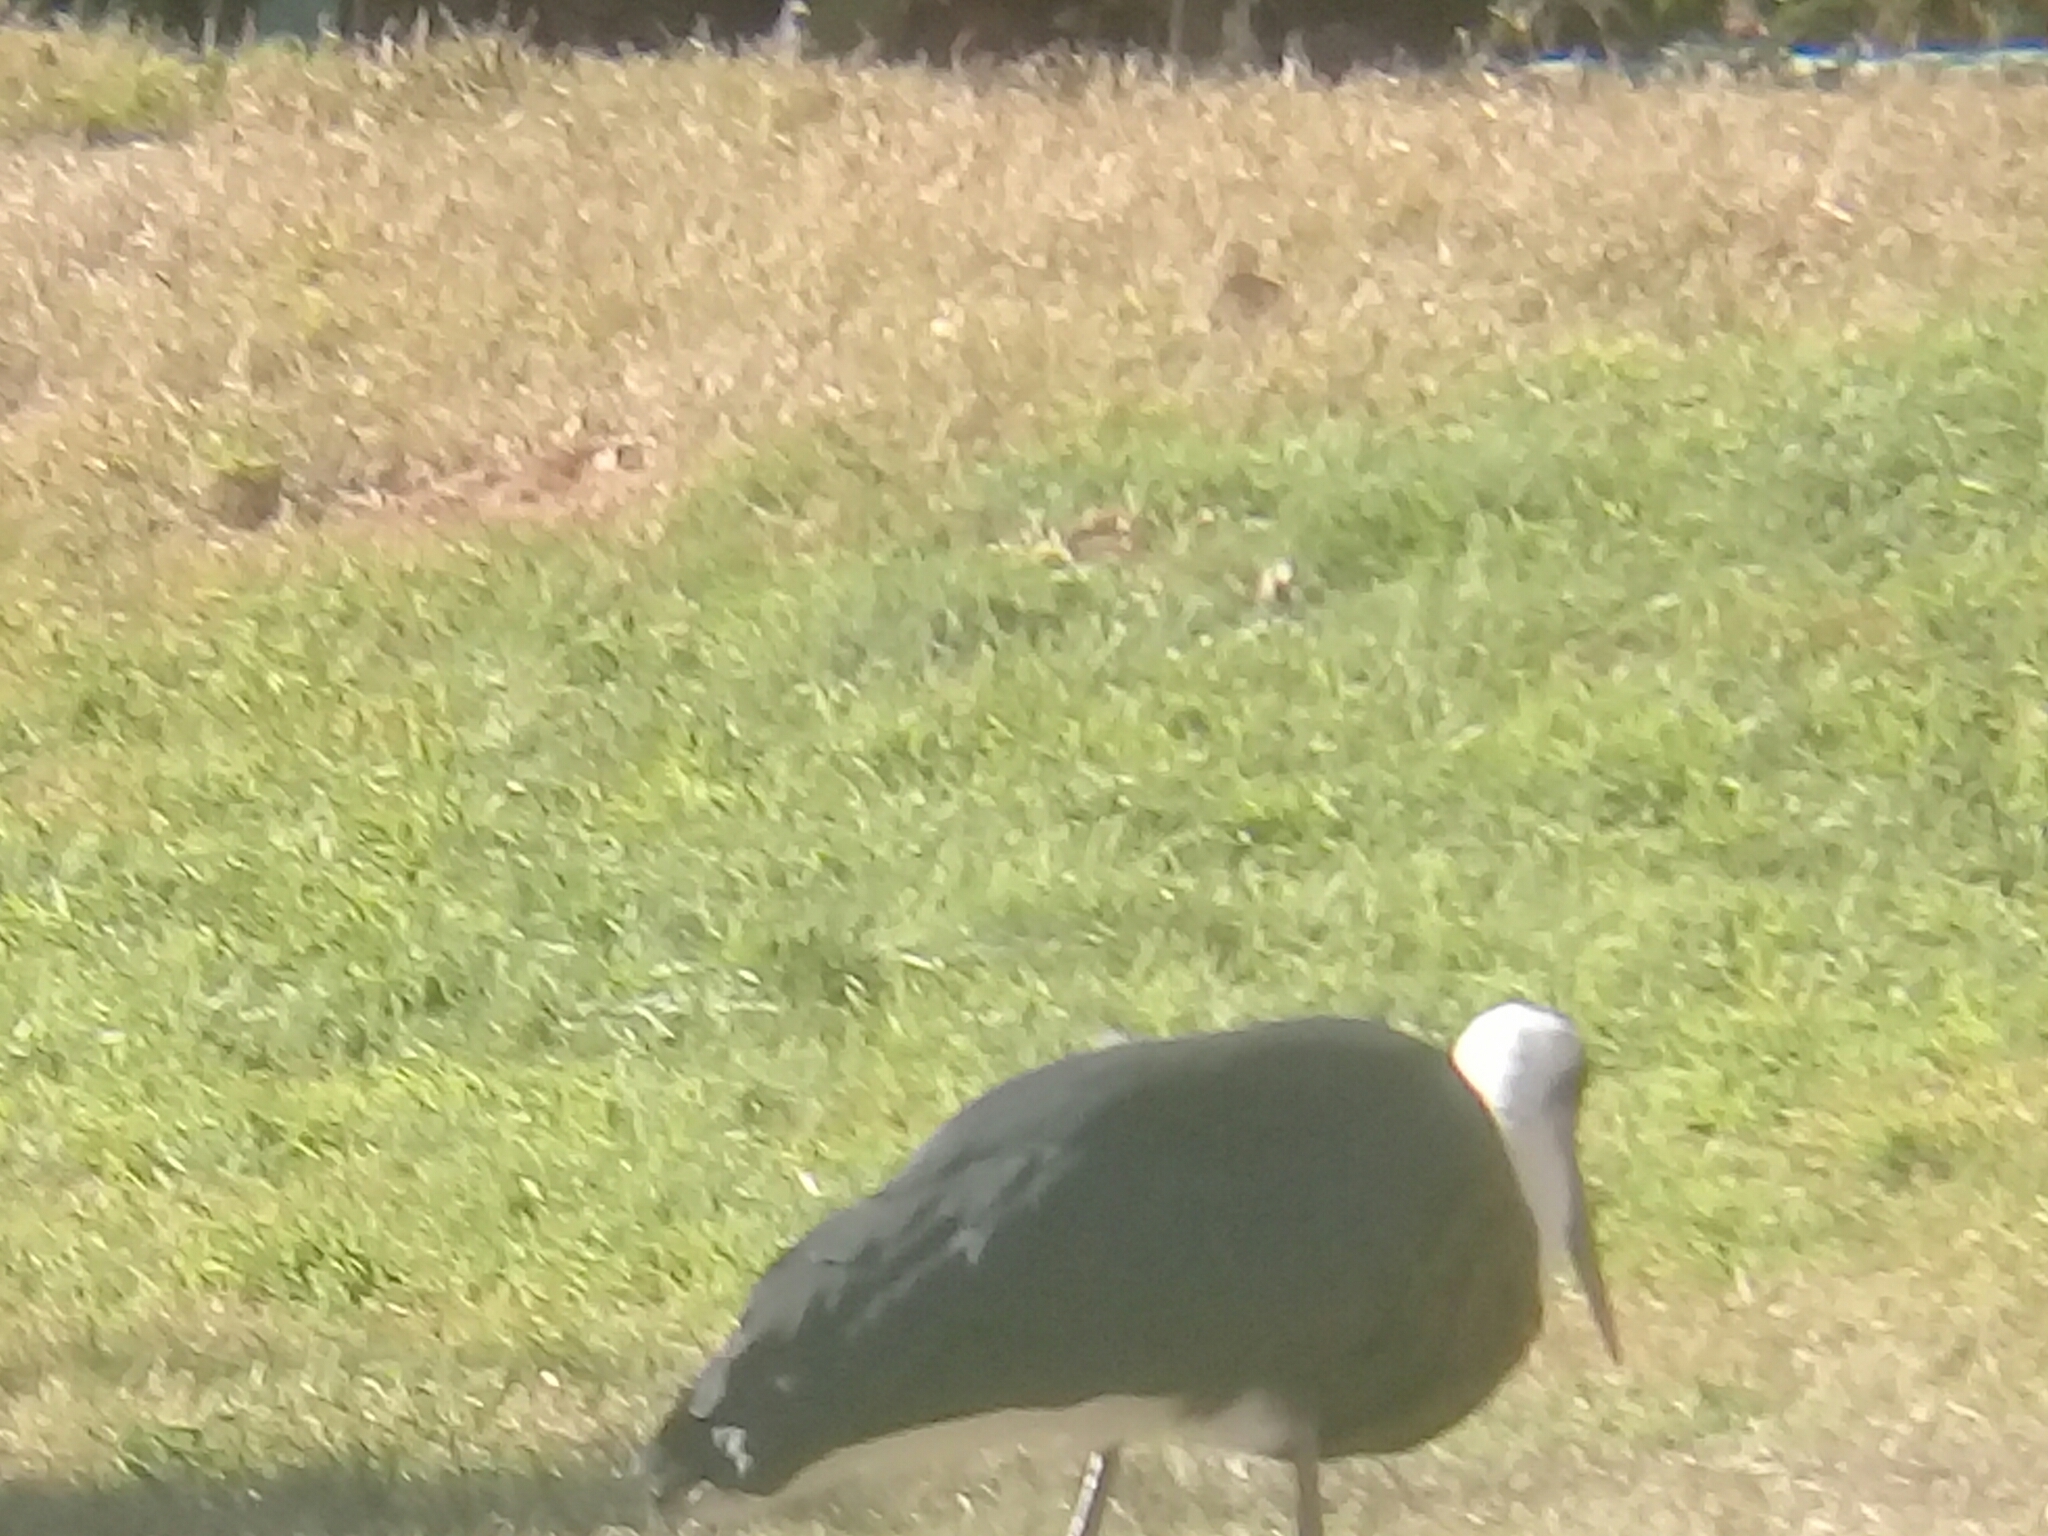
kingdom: Animalia
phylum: Chordata
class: Aves
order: Ciconiiformes
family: Ciconiidae
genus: Ciconia
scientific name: Ciconia microscelis
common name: African woollyneck
